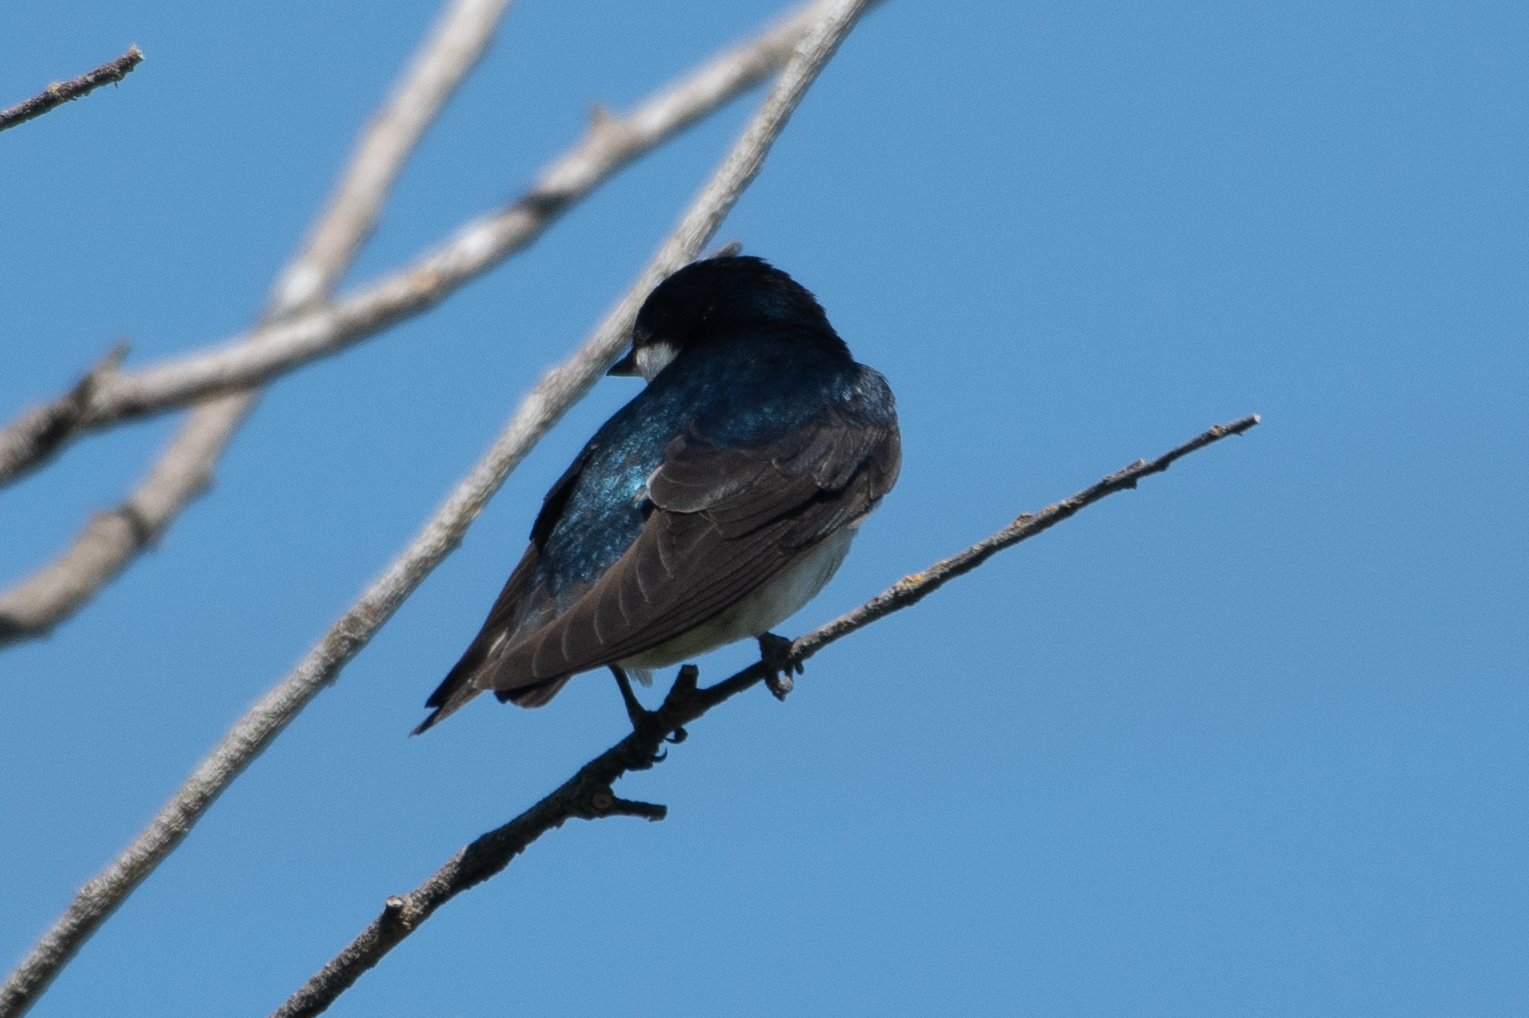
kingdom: Animalia
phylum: Chordata
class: Aves
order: Passeriformes
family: Hirundinidae
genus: Tachycineta
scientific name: Tachycineta bicolor
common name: Tree swallow
